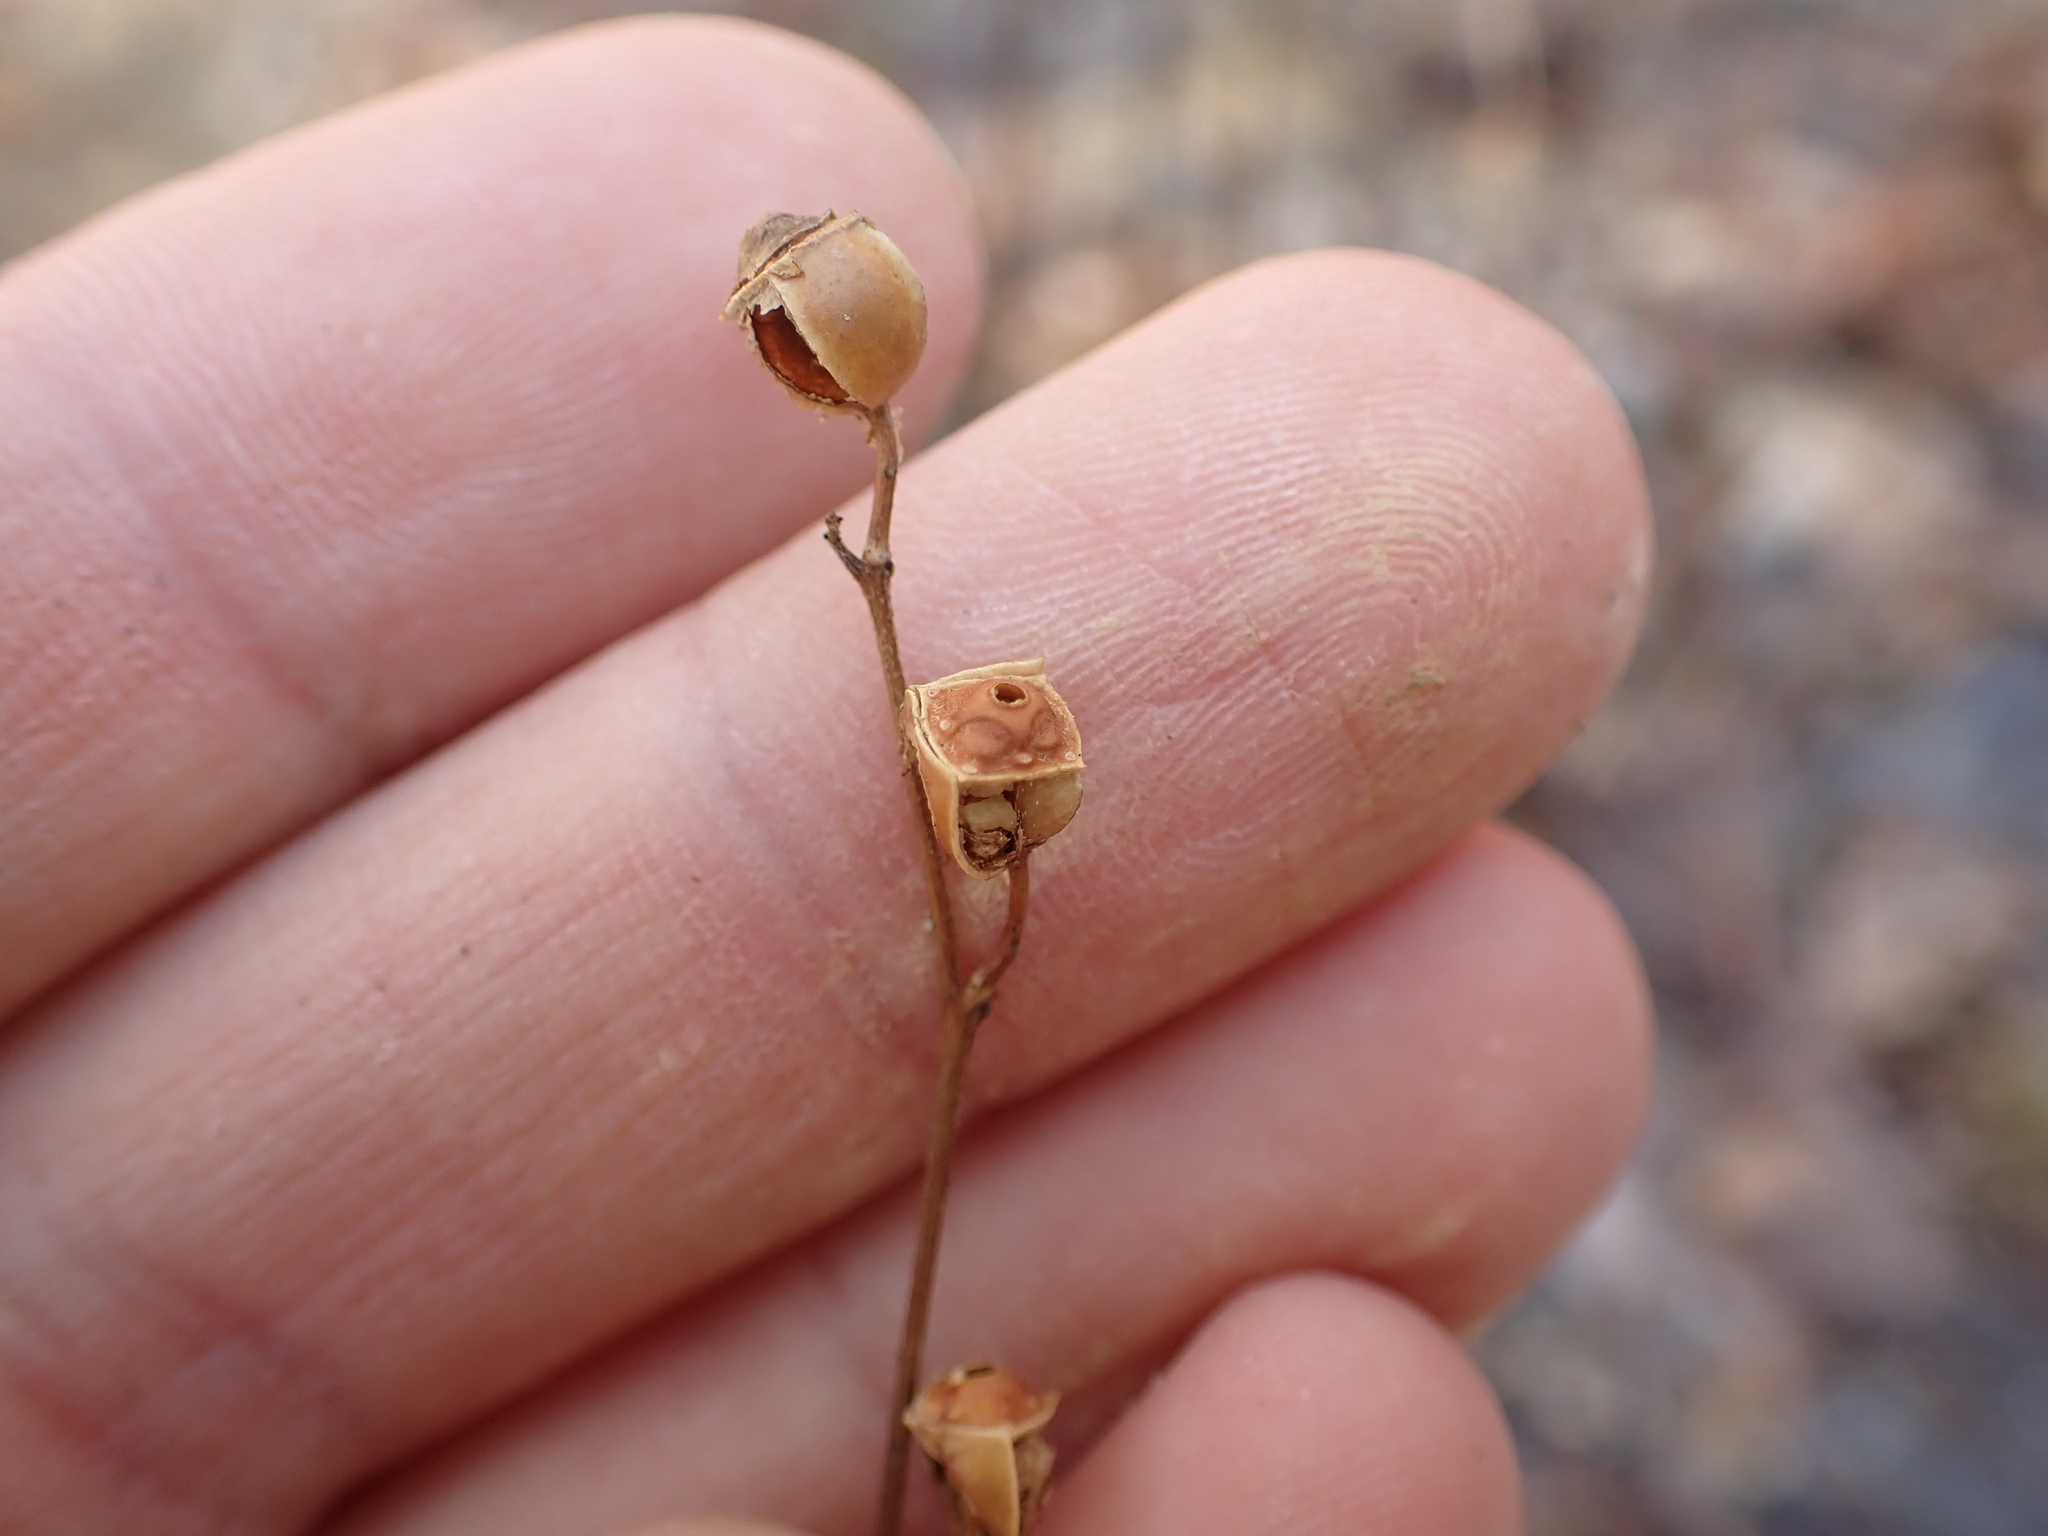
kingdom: Plantae
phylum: Tracheophyta
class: Magnoliopsida
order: Myrtales
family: Onagraceae
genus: Ludwigia
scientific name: Ludwigia alternifolia
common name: Rattlebox
